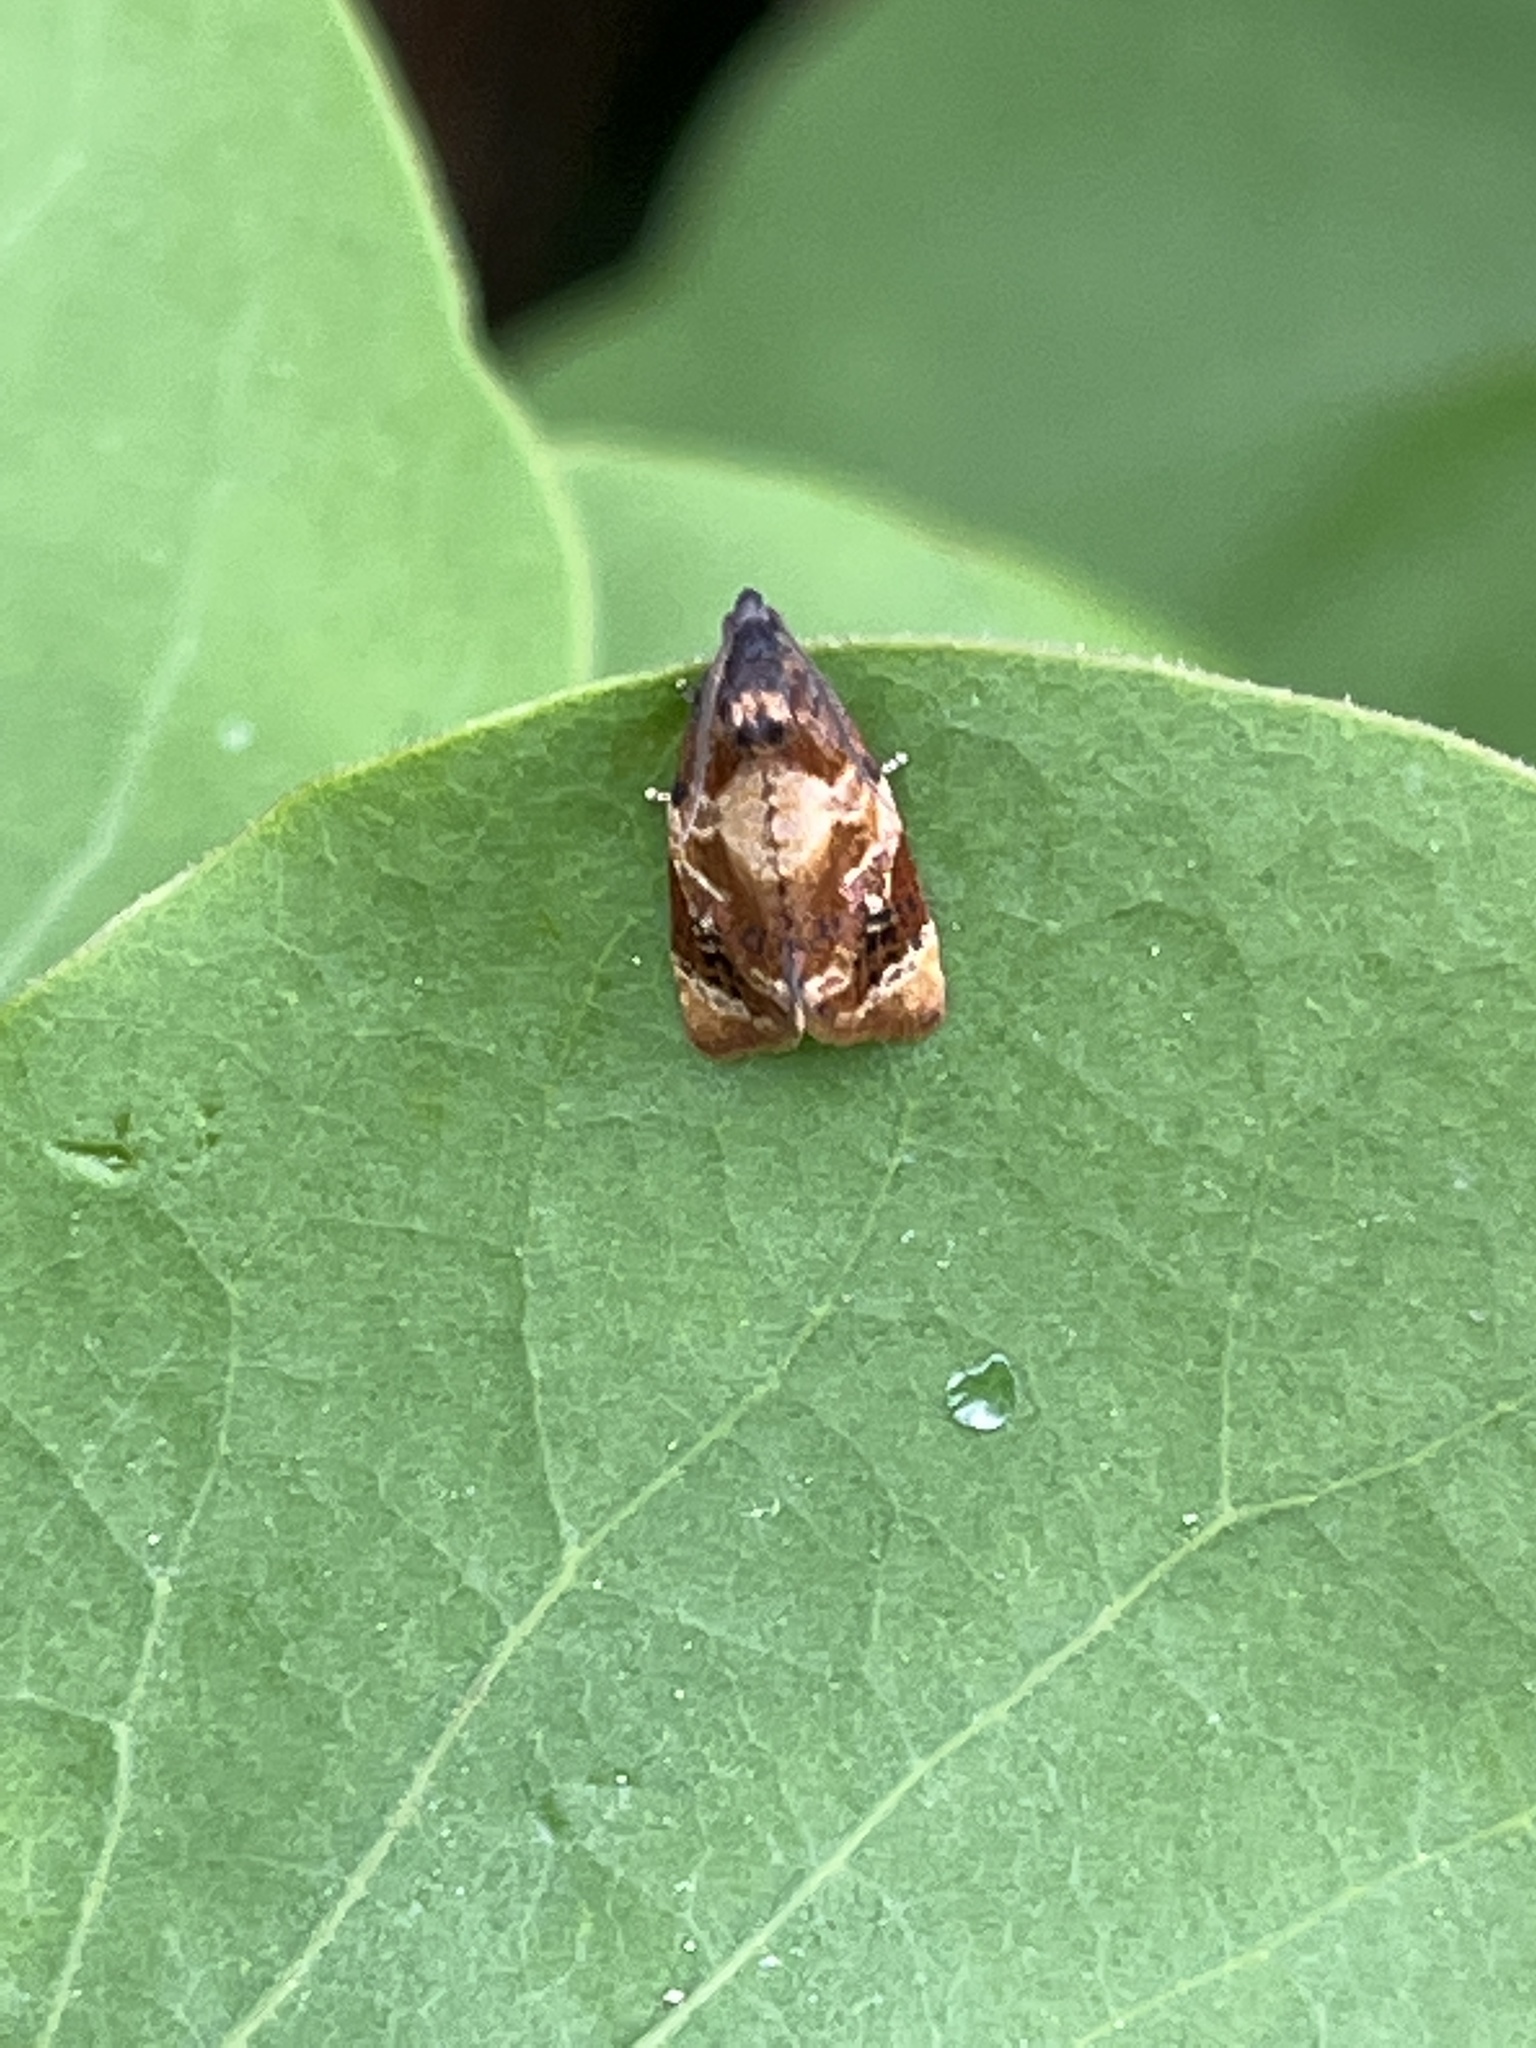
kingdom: Animalia
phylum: Arthropoda
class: Insecta
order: Lepidoptera
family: Tortricidae
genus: Ditula
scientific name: Ditula angustiorana
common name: Red-barred tortrix
